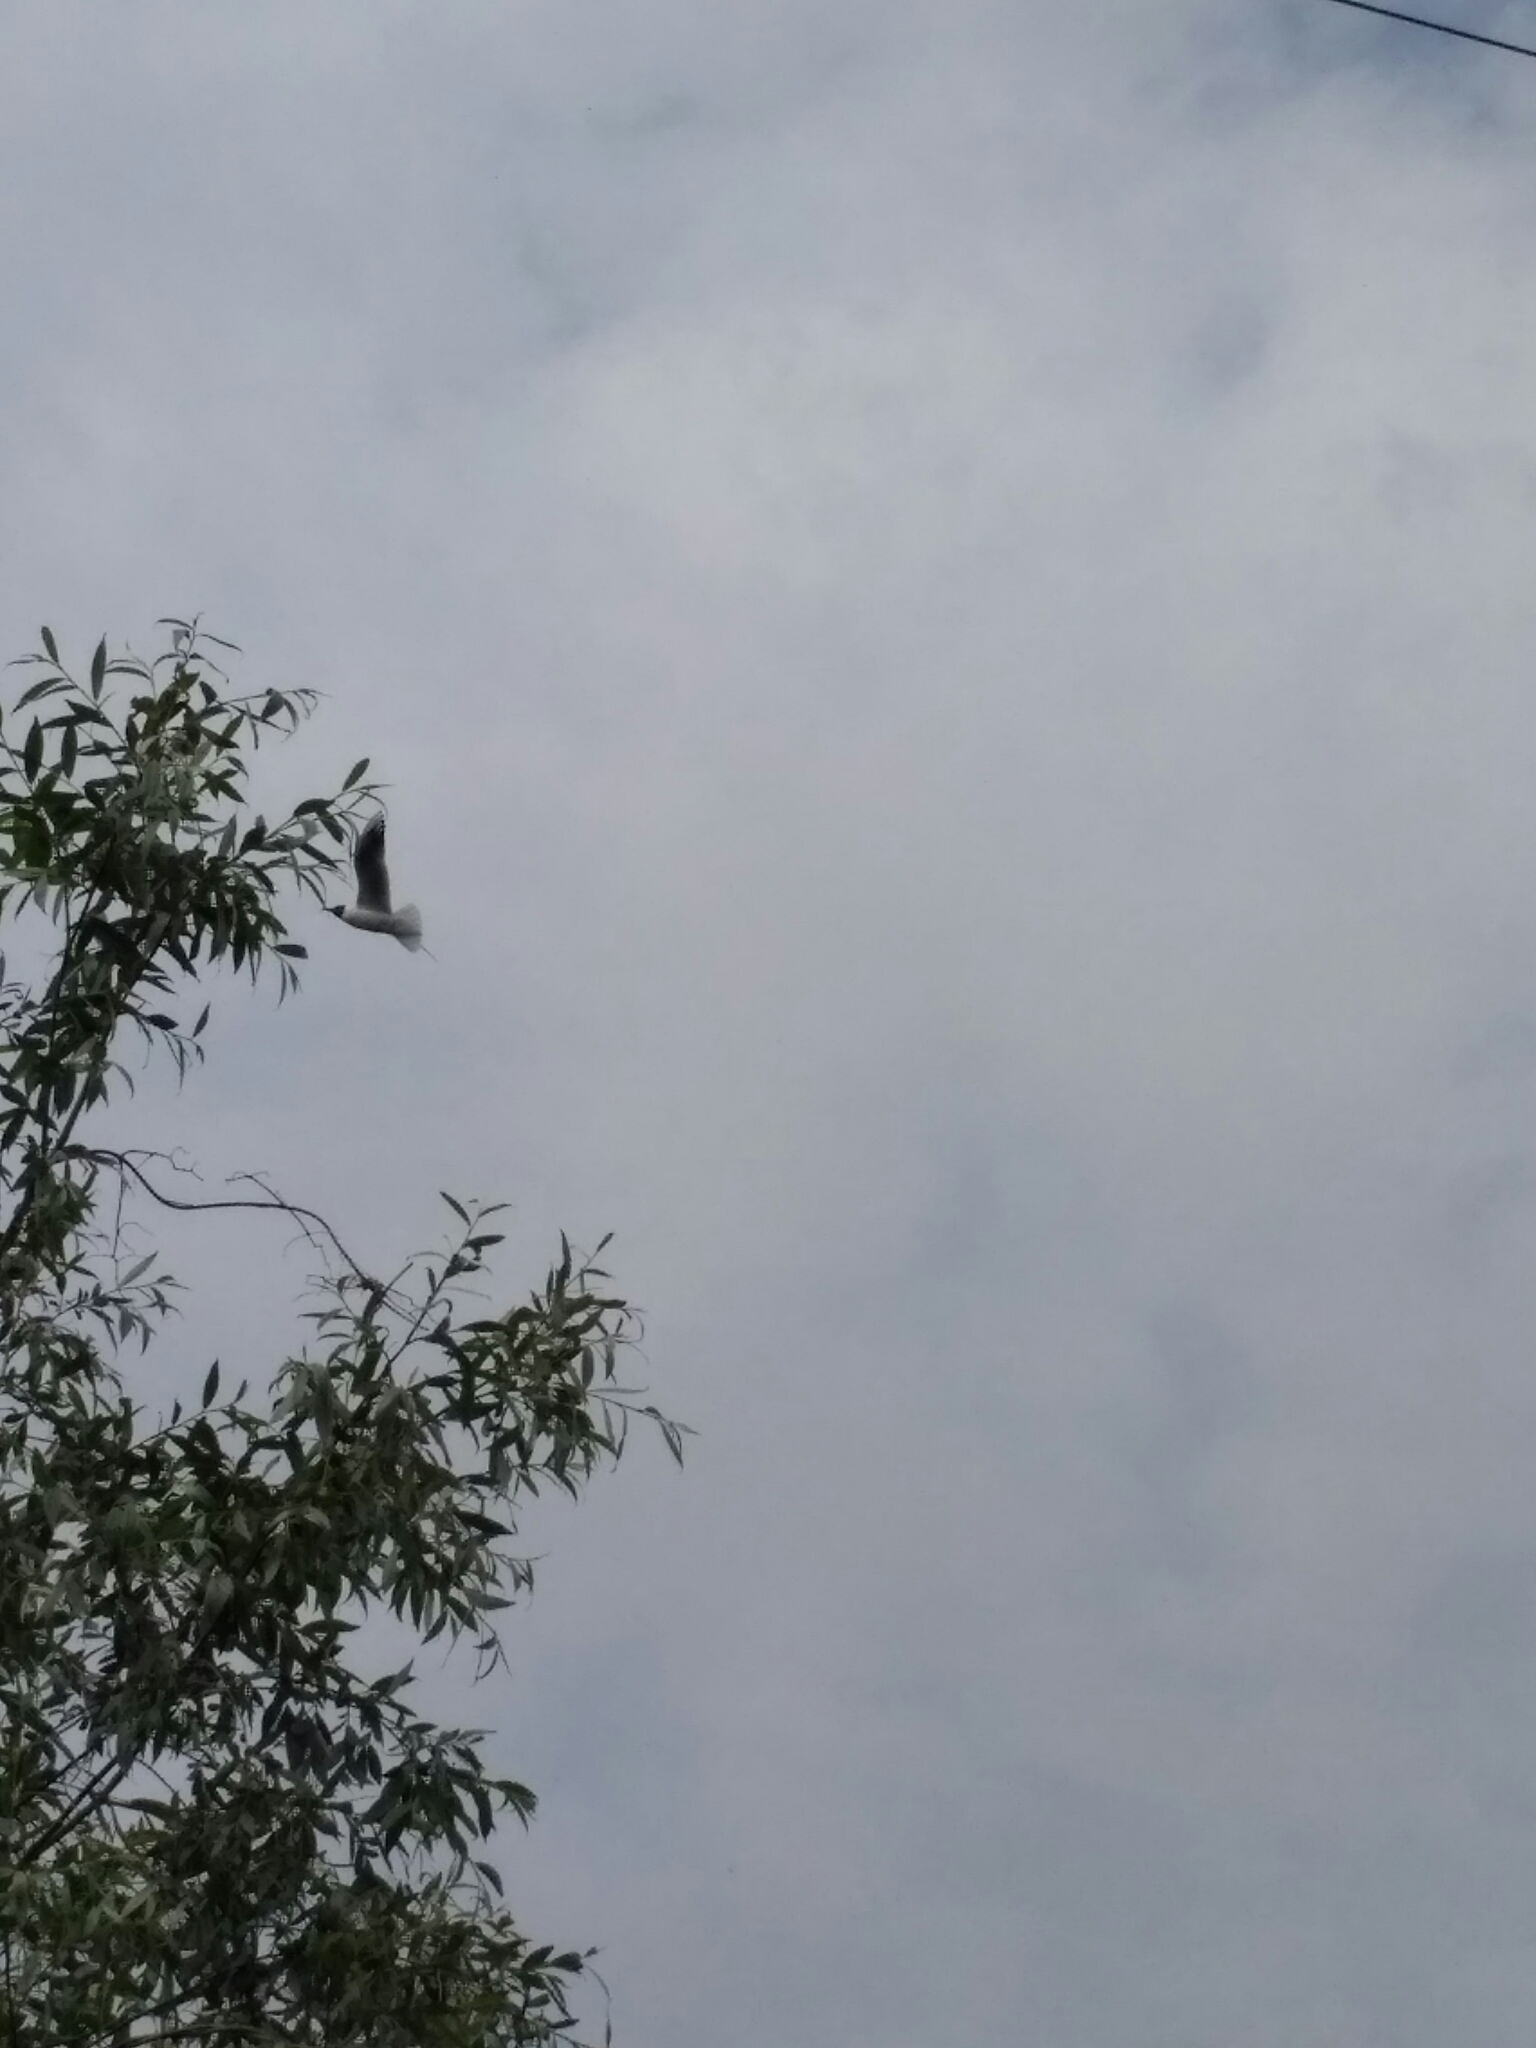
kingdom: Animalia
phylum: Chordata
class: Aves
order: Charadriiformes
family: Laridae
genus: Chroicocephalus
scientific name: Chroicocephalus ridibundus
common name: Black-headed gull
